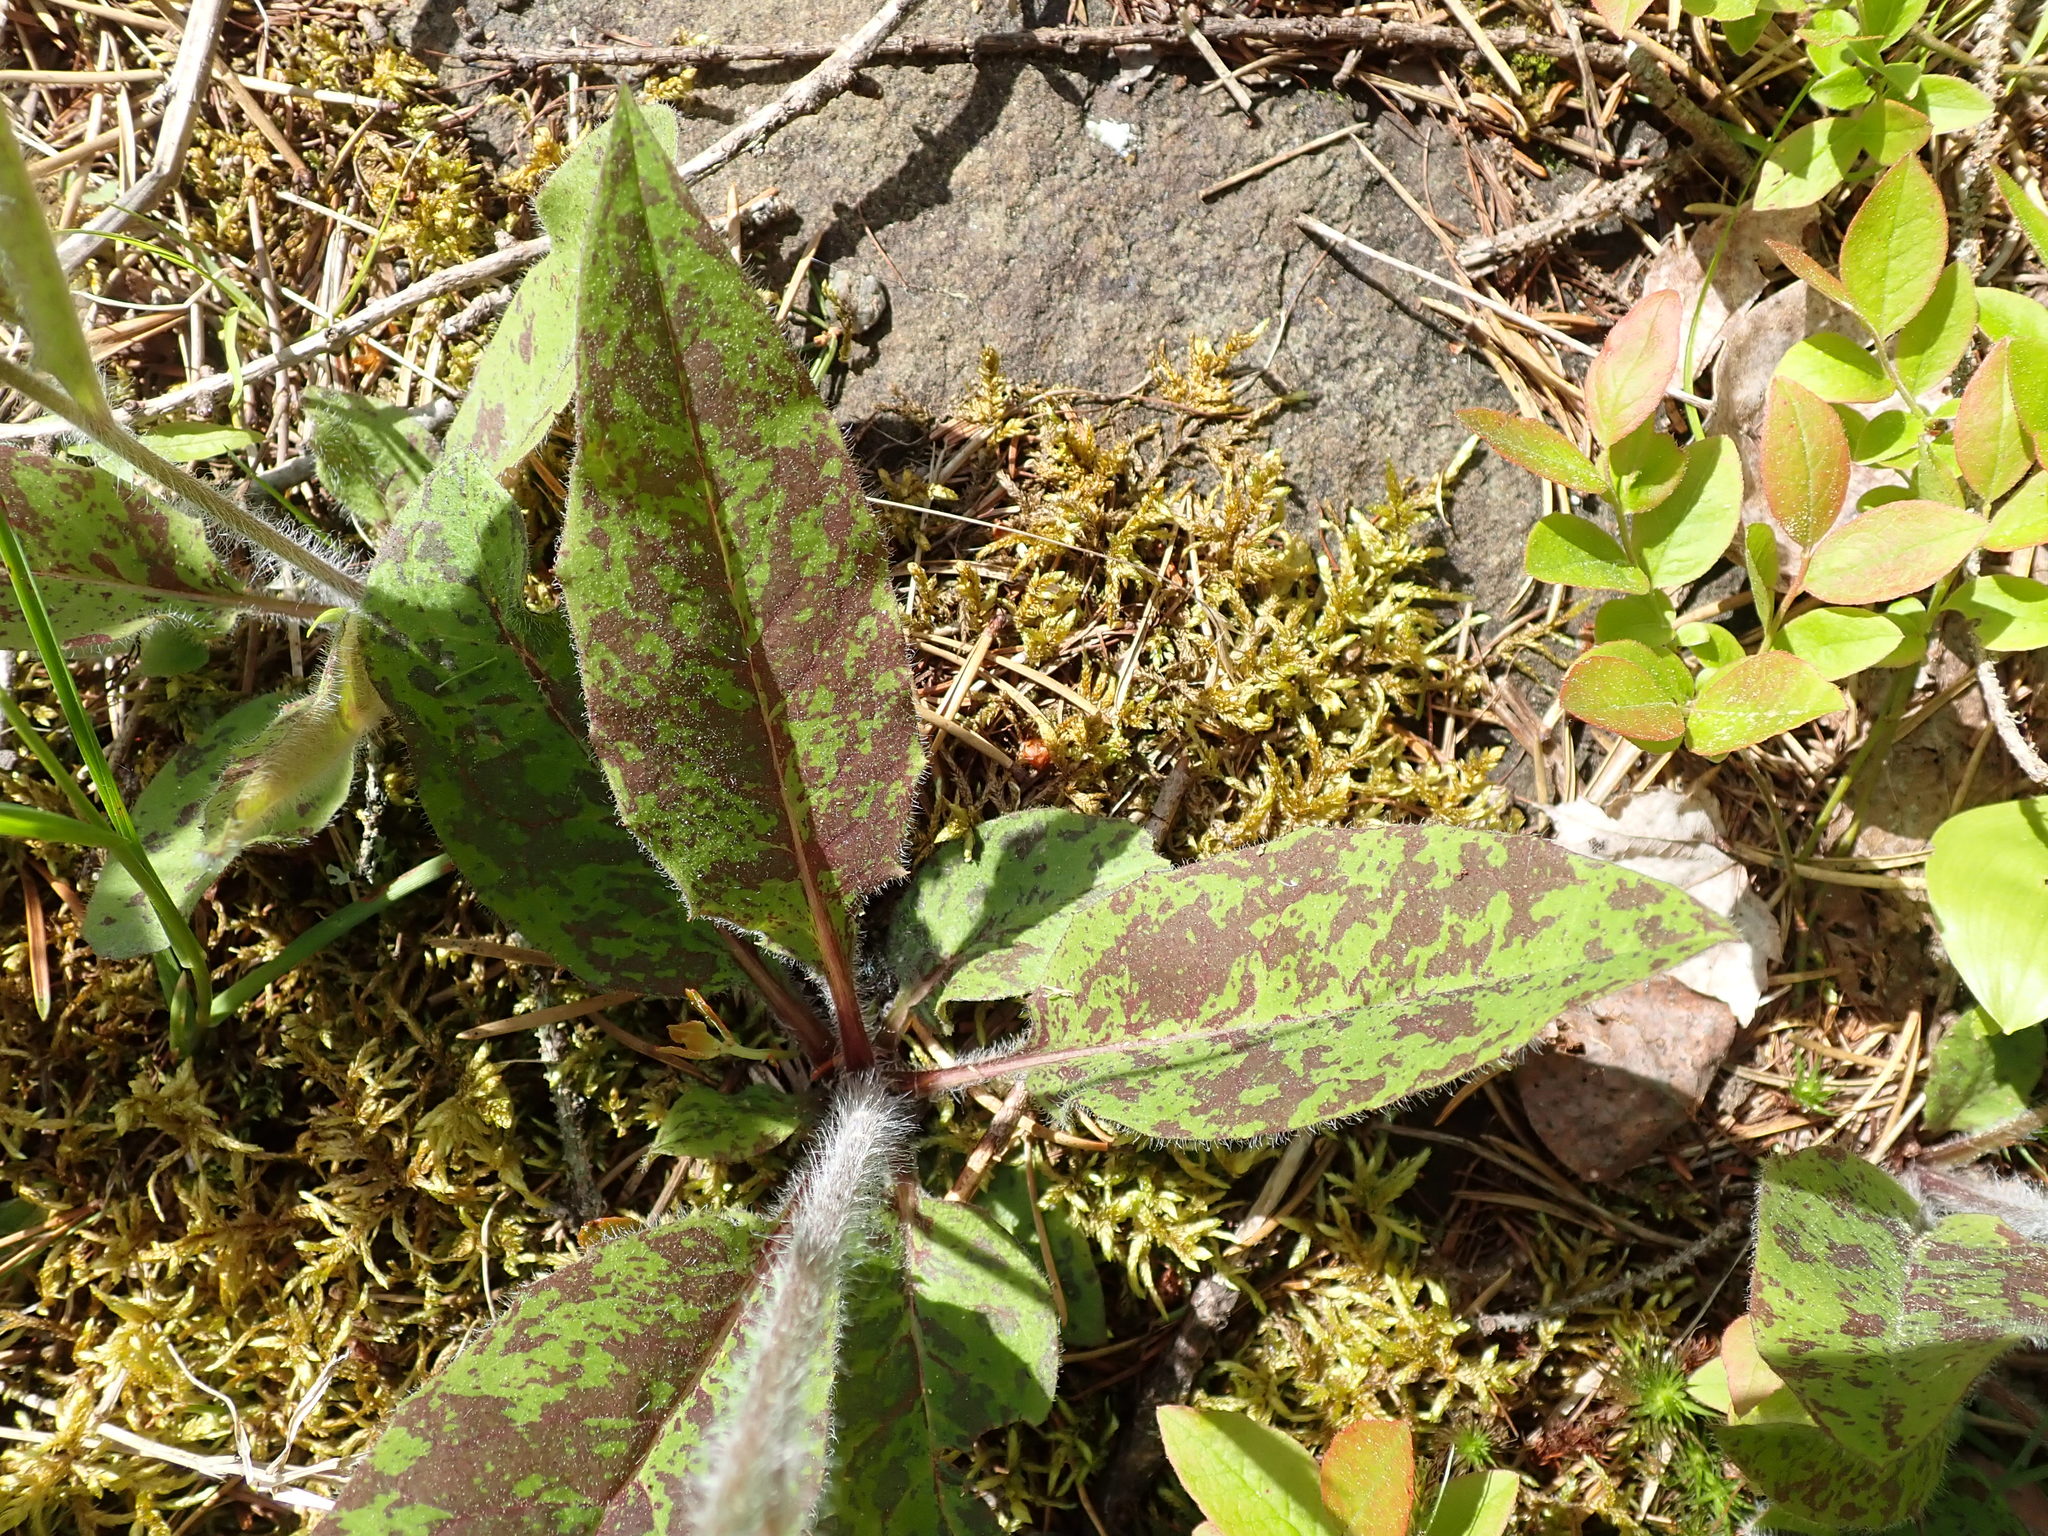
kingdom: Plantae
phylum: Tracheophyta
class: Magnoliopsida
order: Asterales
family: Asteraceae
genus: Hieracium
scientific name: Hieracium maculatum
